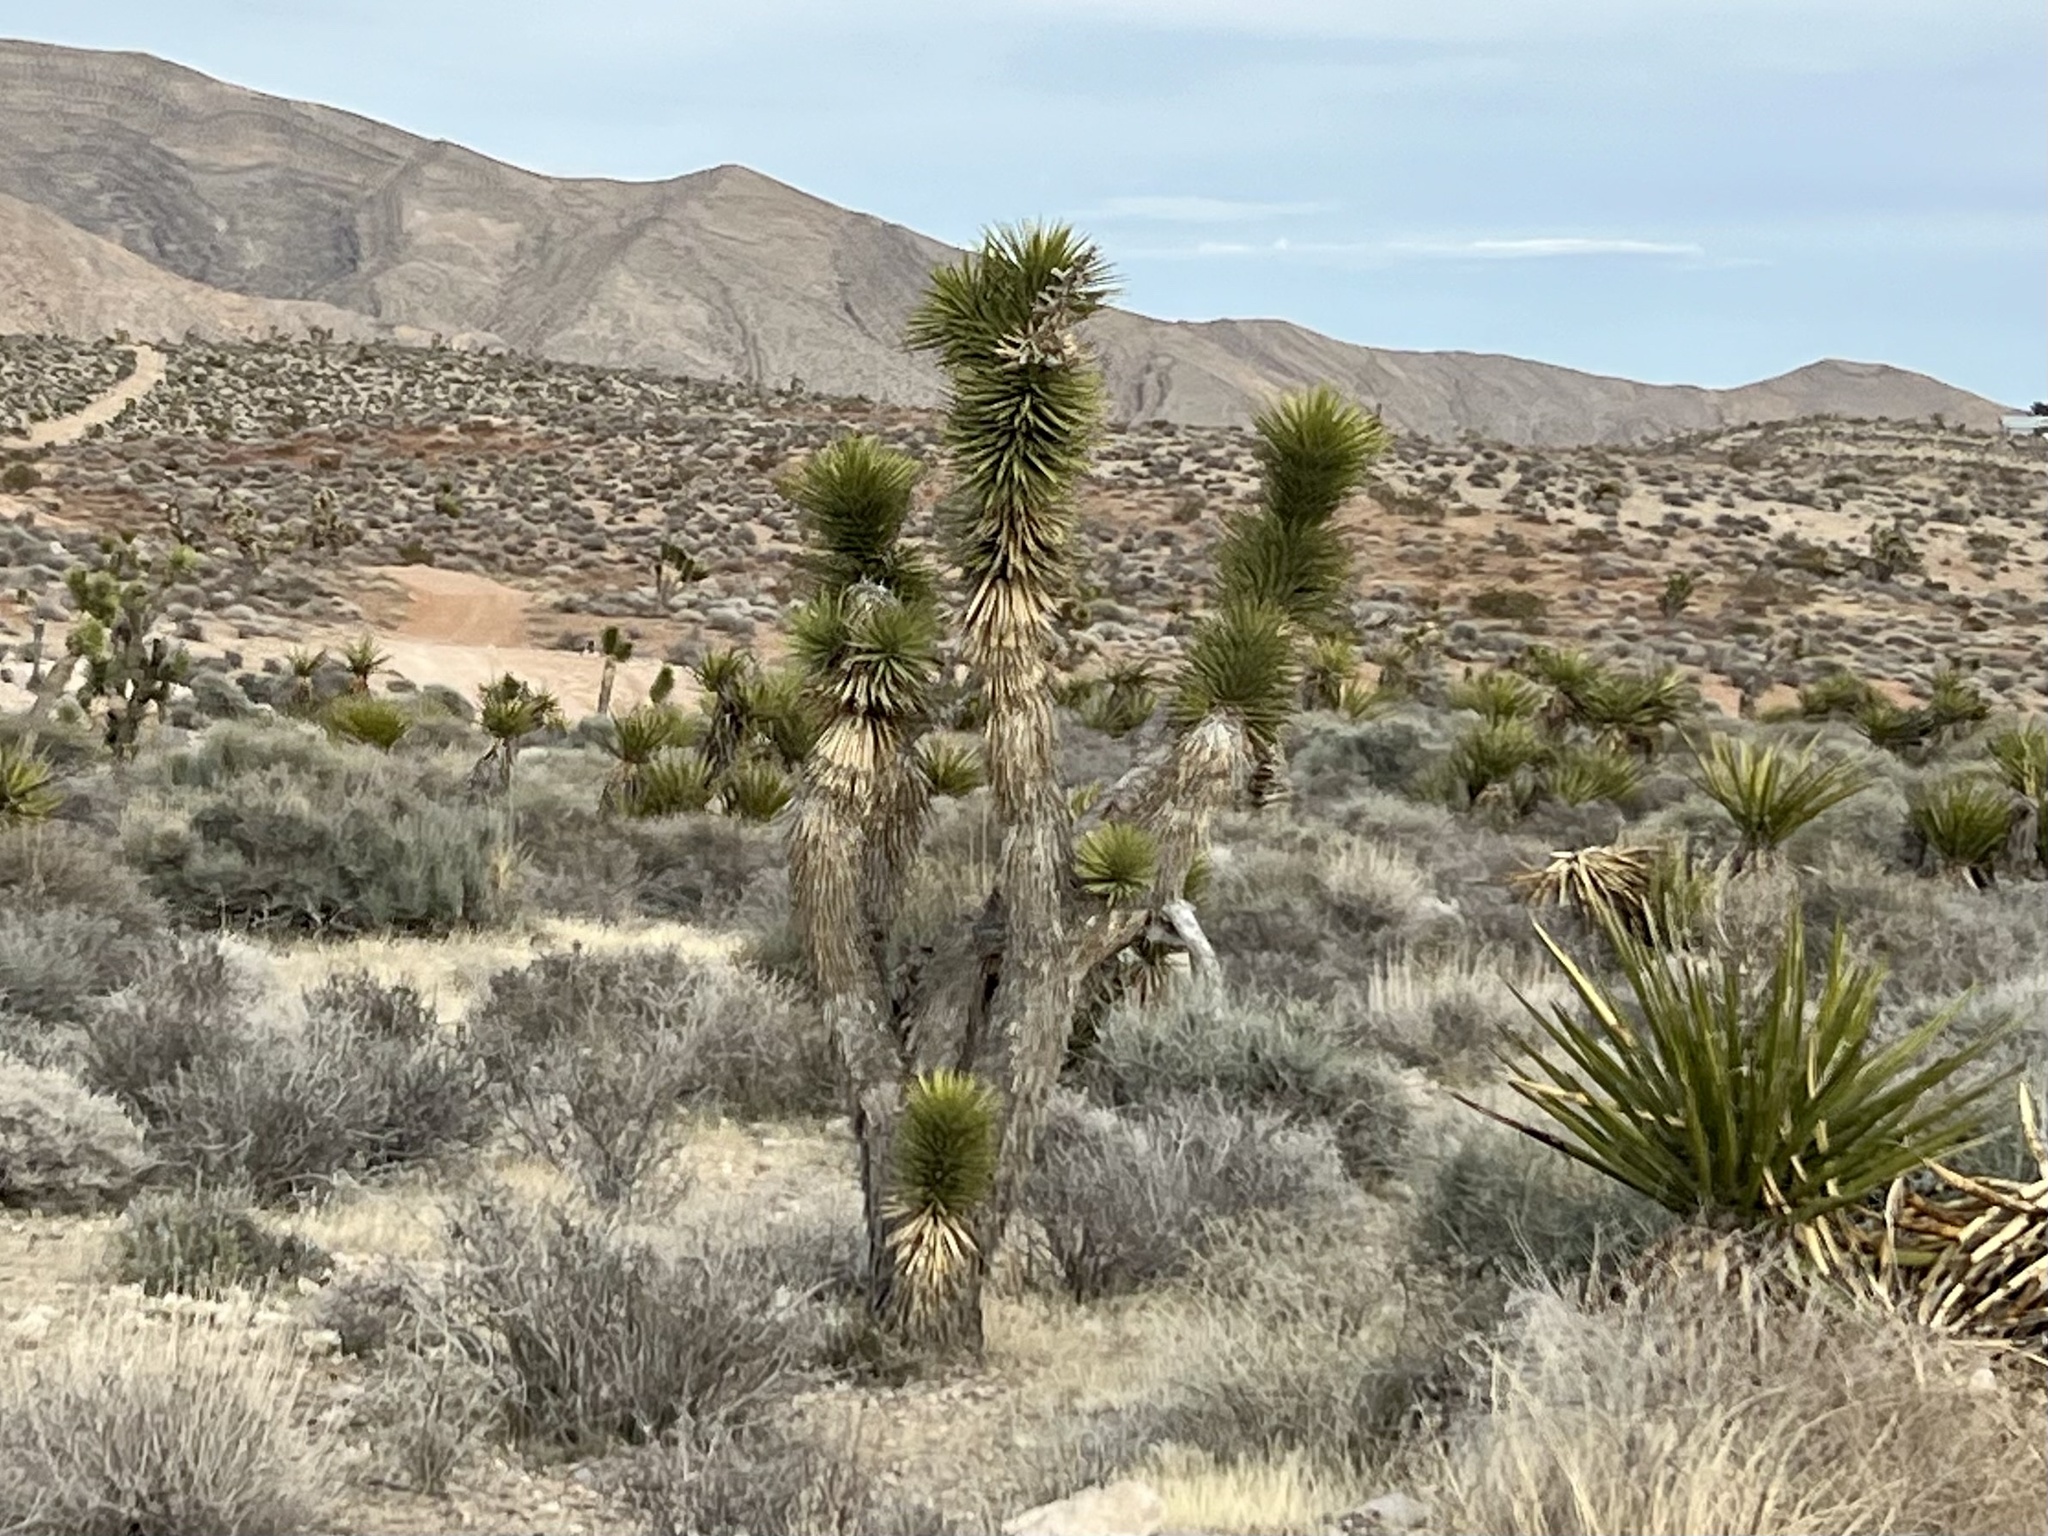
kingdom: Plantae
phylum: Tracheophyta
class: Liliopsida
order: Asparagales
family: Asparagaceae
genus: Yucca
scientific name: Yucca brevifolia
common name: Joshua tree
